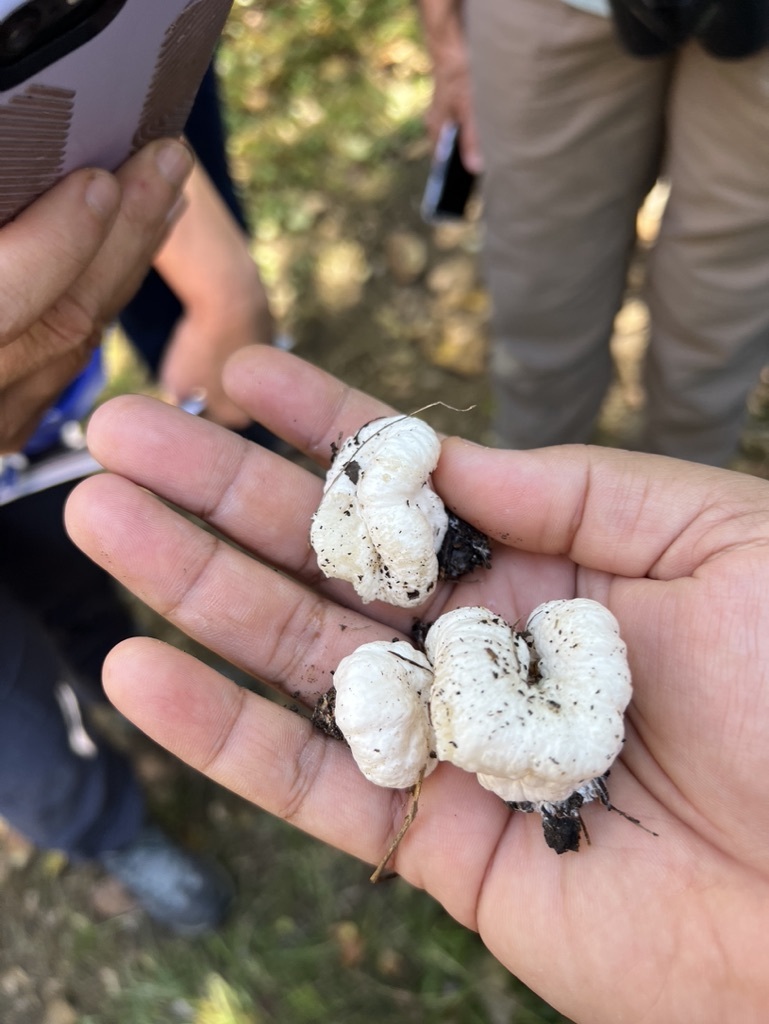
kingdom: Fungi
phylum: Basidiomycota
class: Agaricomycetes
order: Agaricales
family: Entolomataceae
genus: Entoloma
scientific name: Entoloma abortivum
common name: Aborted entoloma
